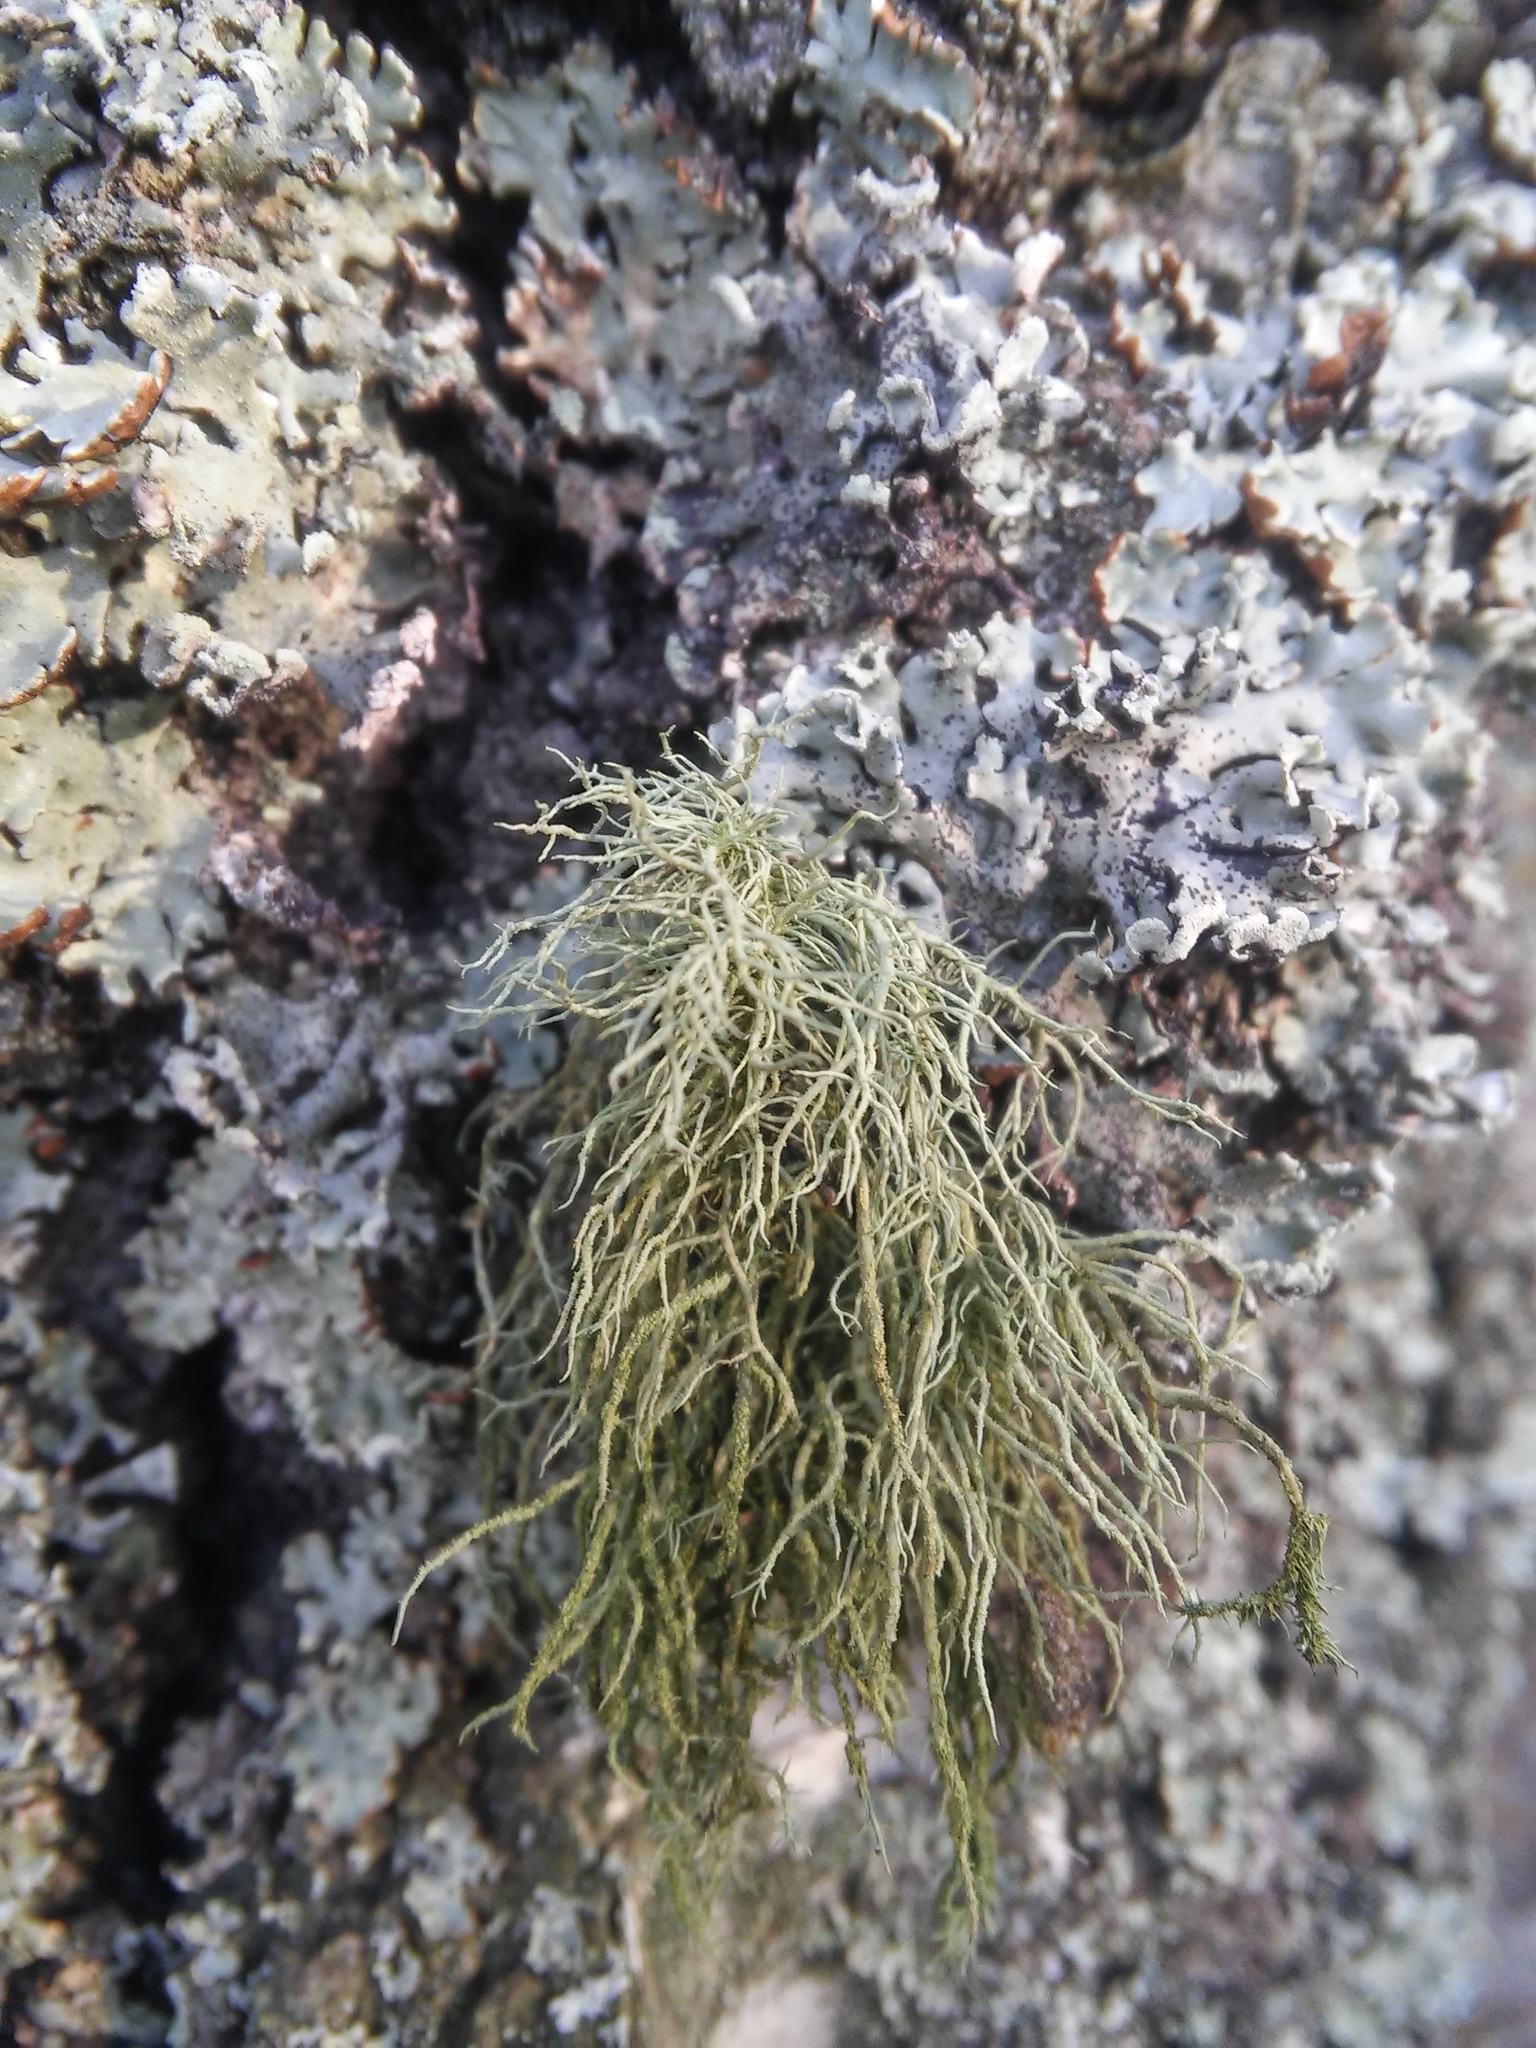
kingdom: Fungi
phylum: Ascomycota
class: Lecanoromycetes
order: Lecanorales
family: Parmeliaceae
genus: Usnea
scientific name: Usnea hirta
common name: Bristly beard lichen
